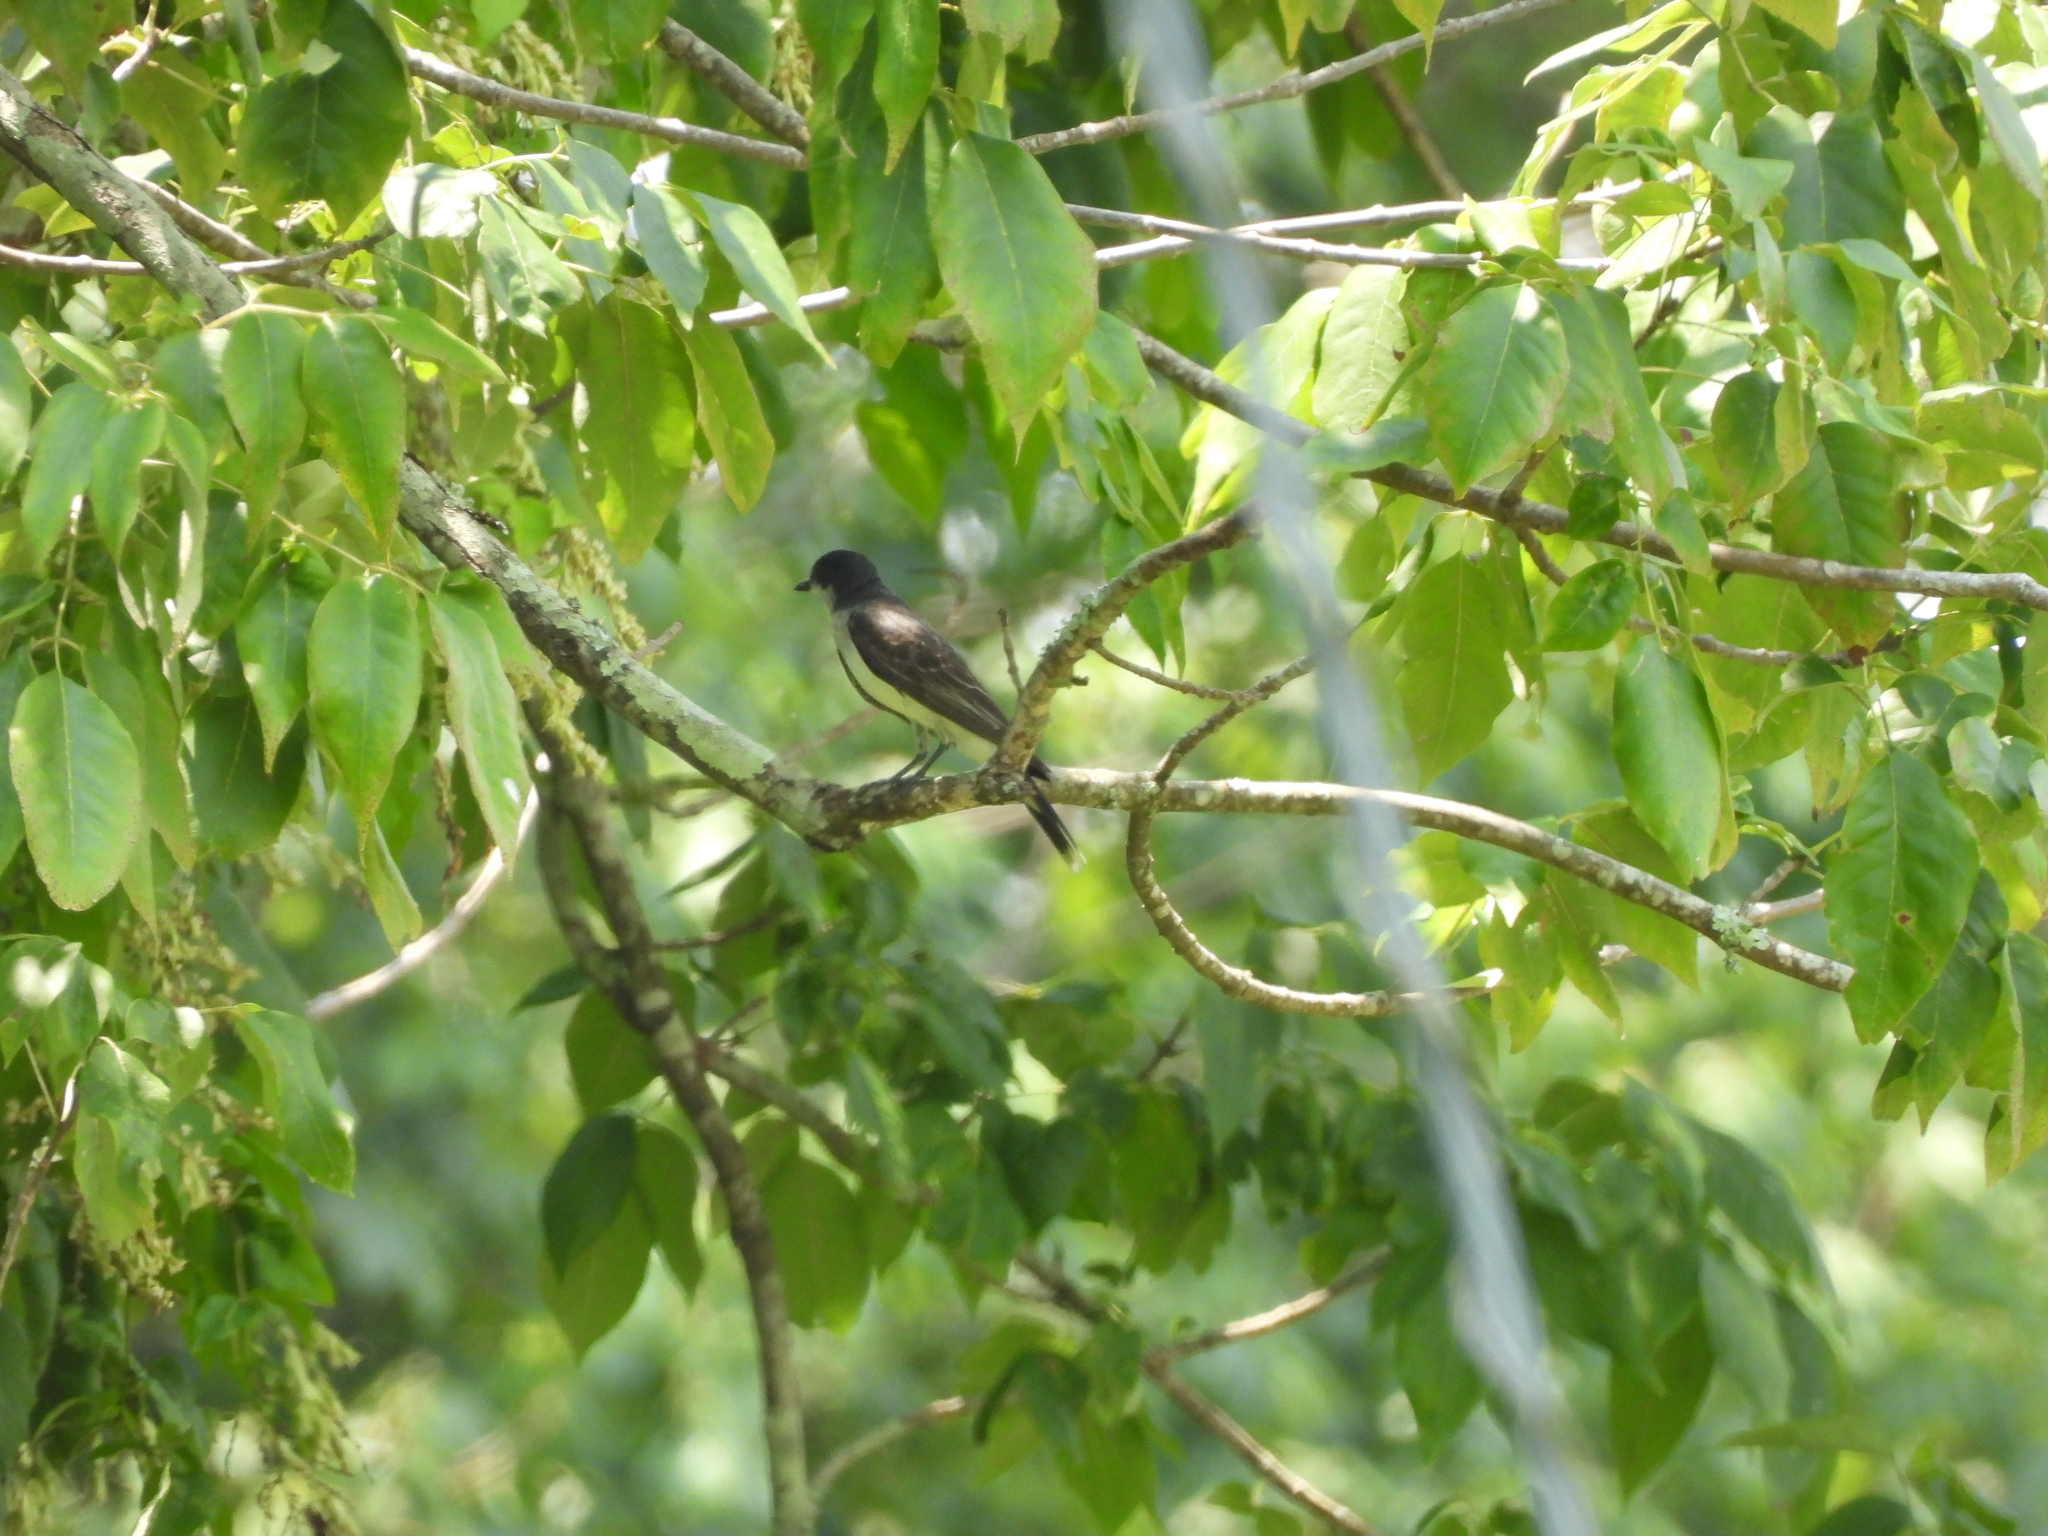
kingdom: Animalia
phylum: Chordata
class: Aves
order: Passeriformes
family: Tyrannidae
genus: Tyrannus
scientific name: Tyrannus tyrannus
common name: Eastern kingbird
